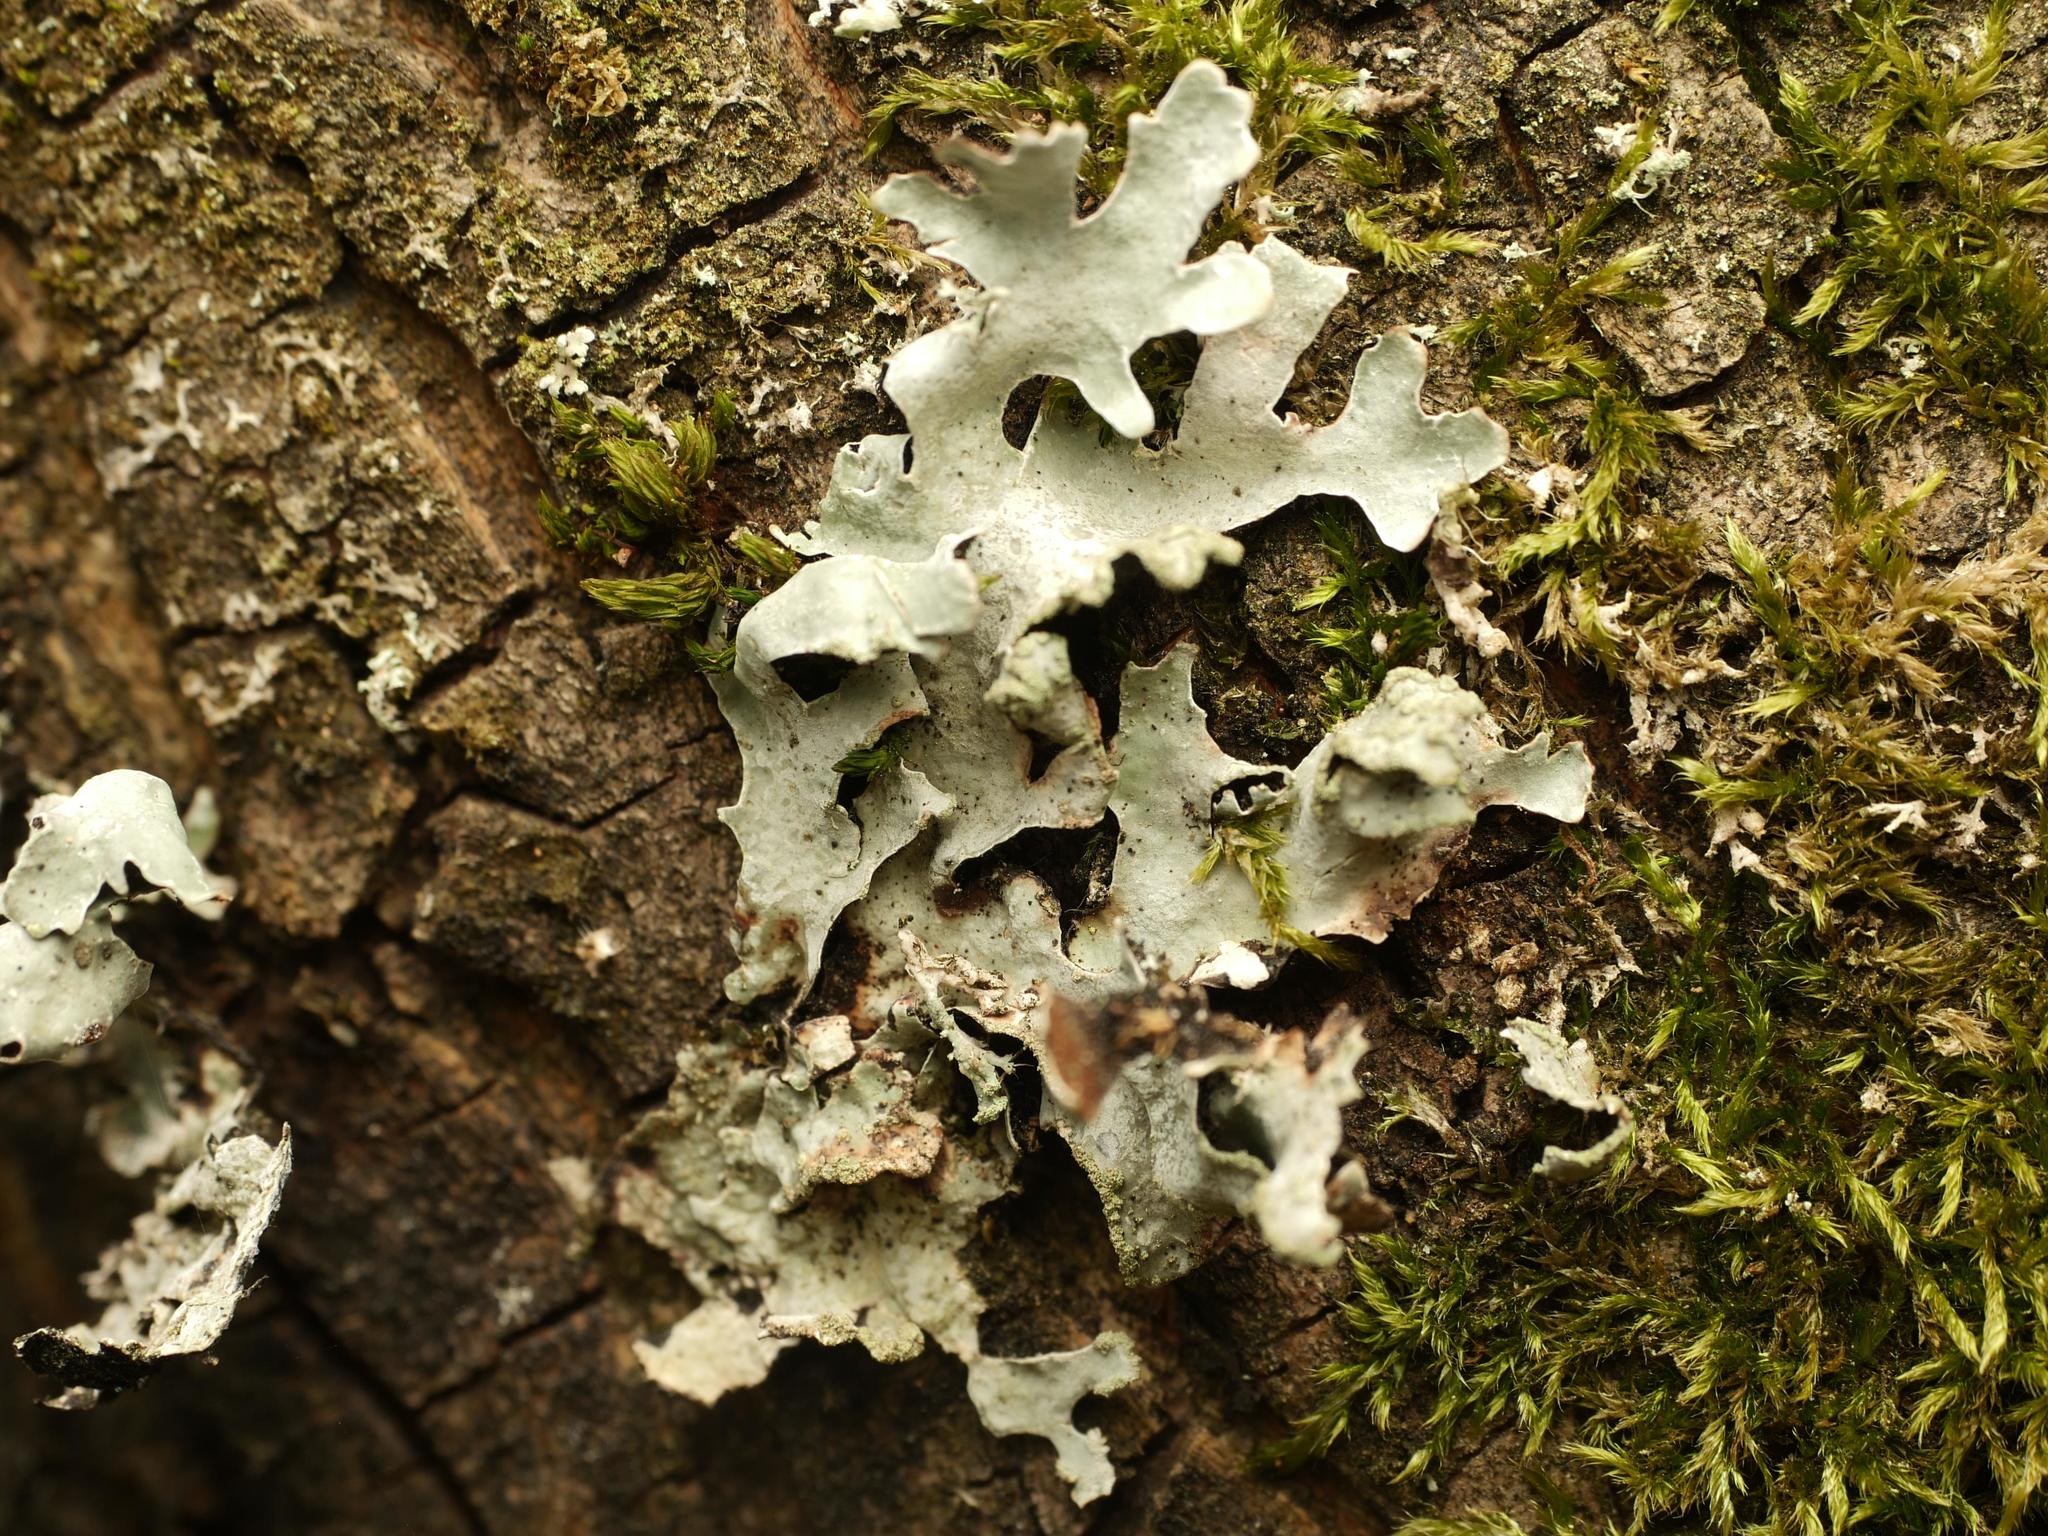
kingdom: Fungi
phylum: Ascomycota
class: Lecanoromycetes
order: Lecanorales
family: Parmeliaceae
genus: Parmelia
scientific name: Parmelia sulcata
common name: Netted shield lichen
